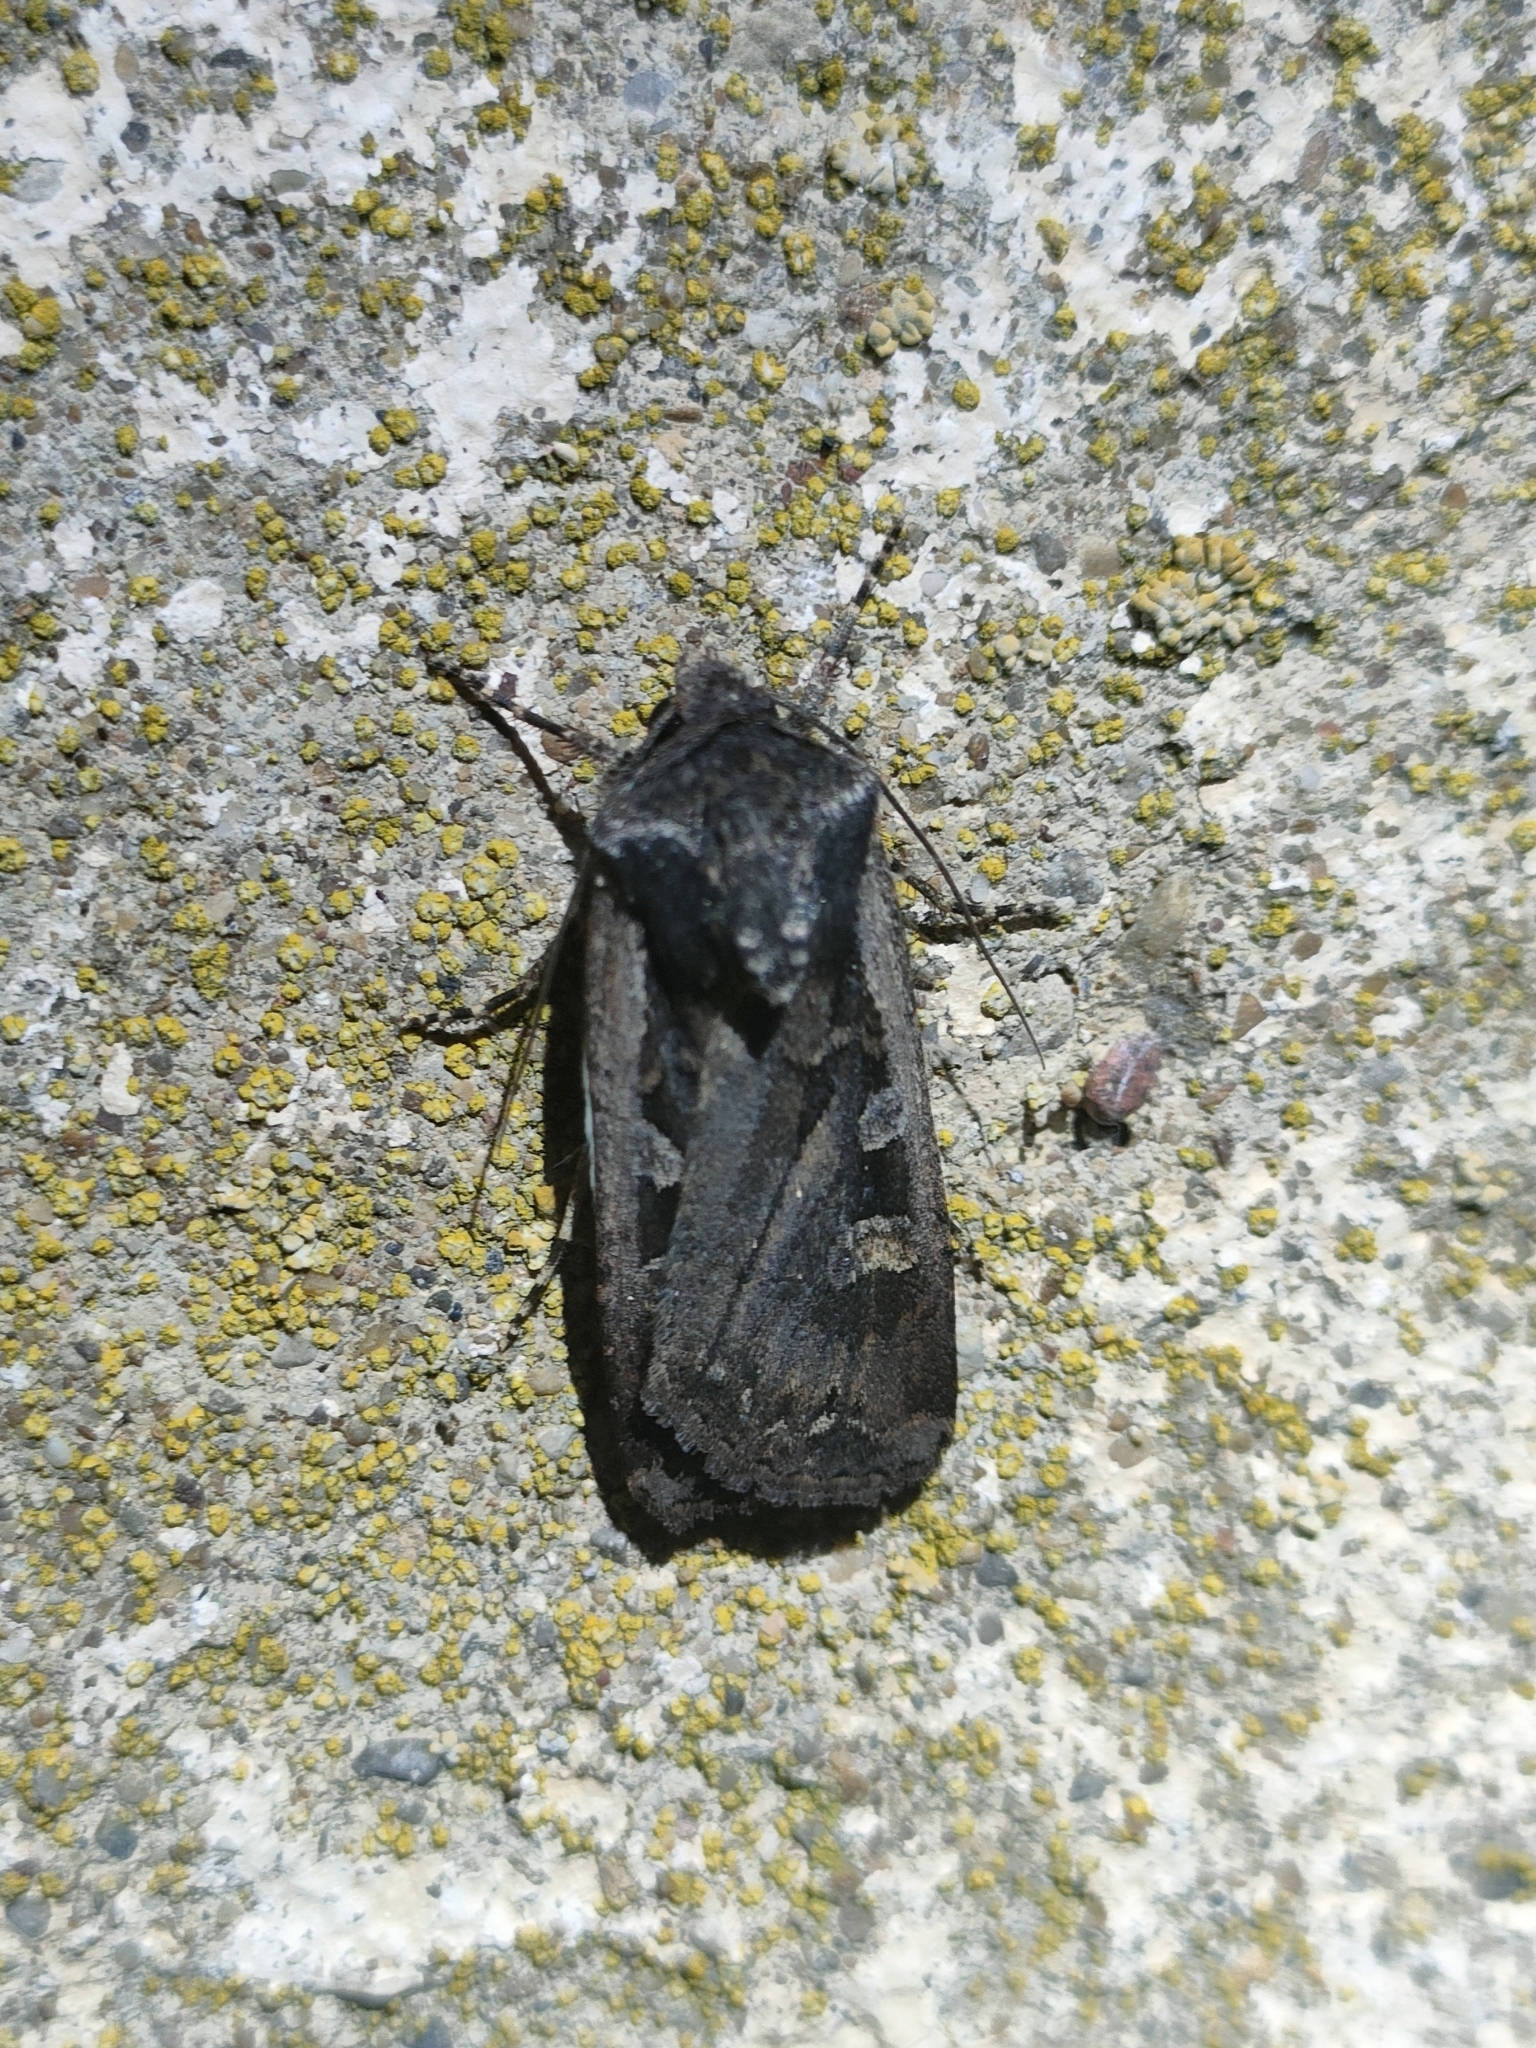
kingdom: Animalia
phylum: Arthropoda
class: Insecta
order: Lepidoptera
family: Noctuidae
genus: Euxoa
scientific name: Euxoa temera
